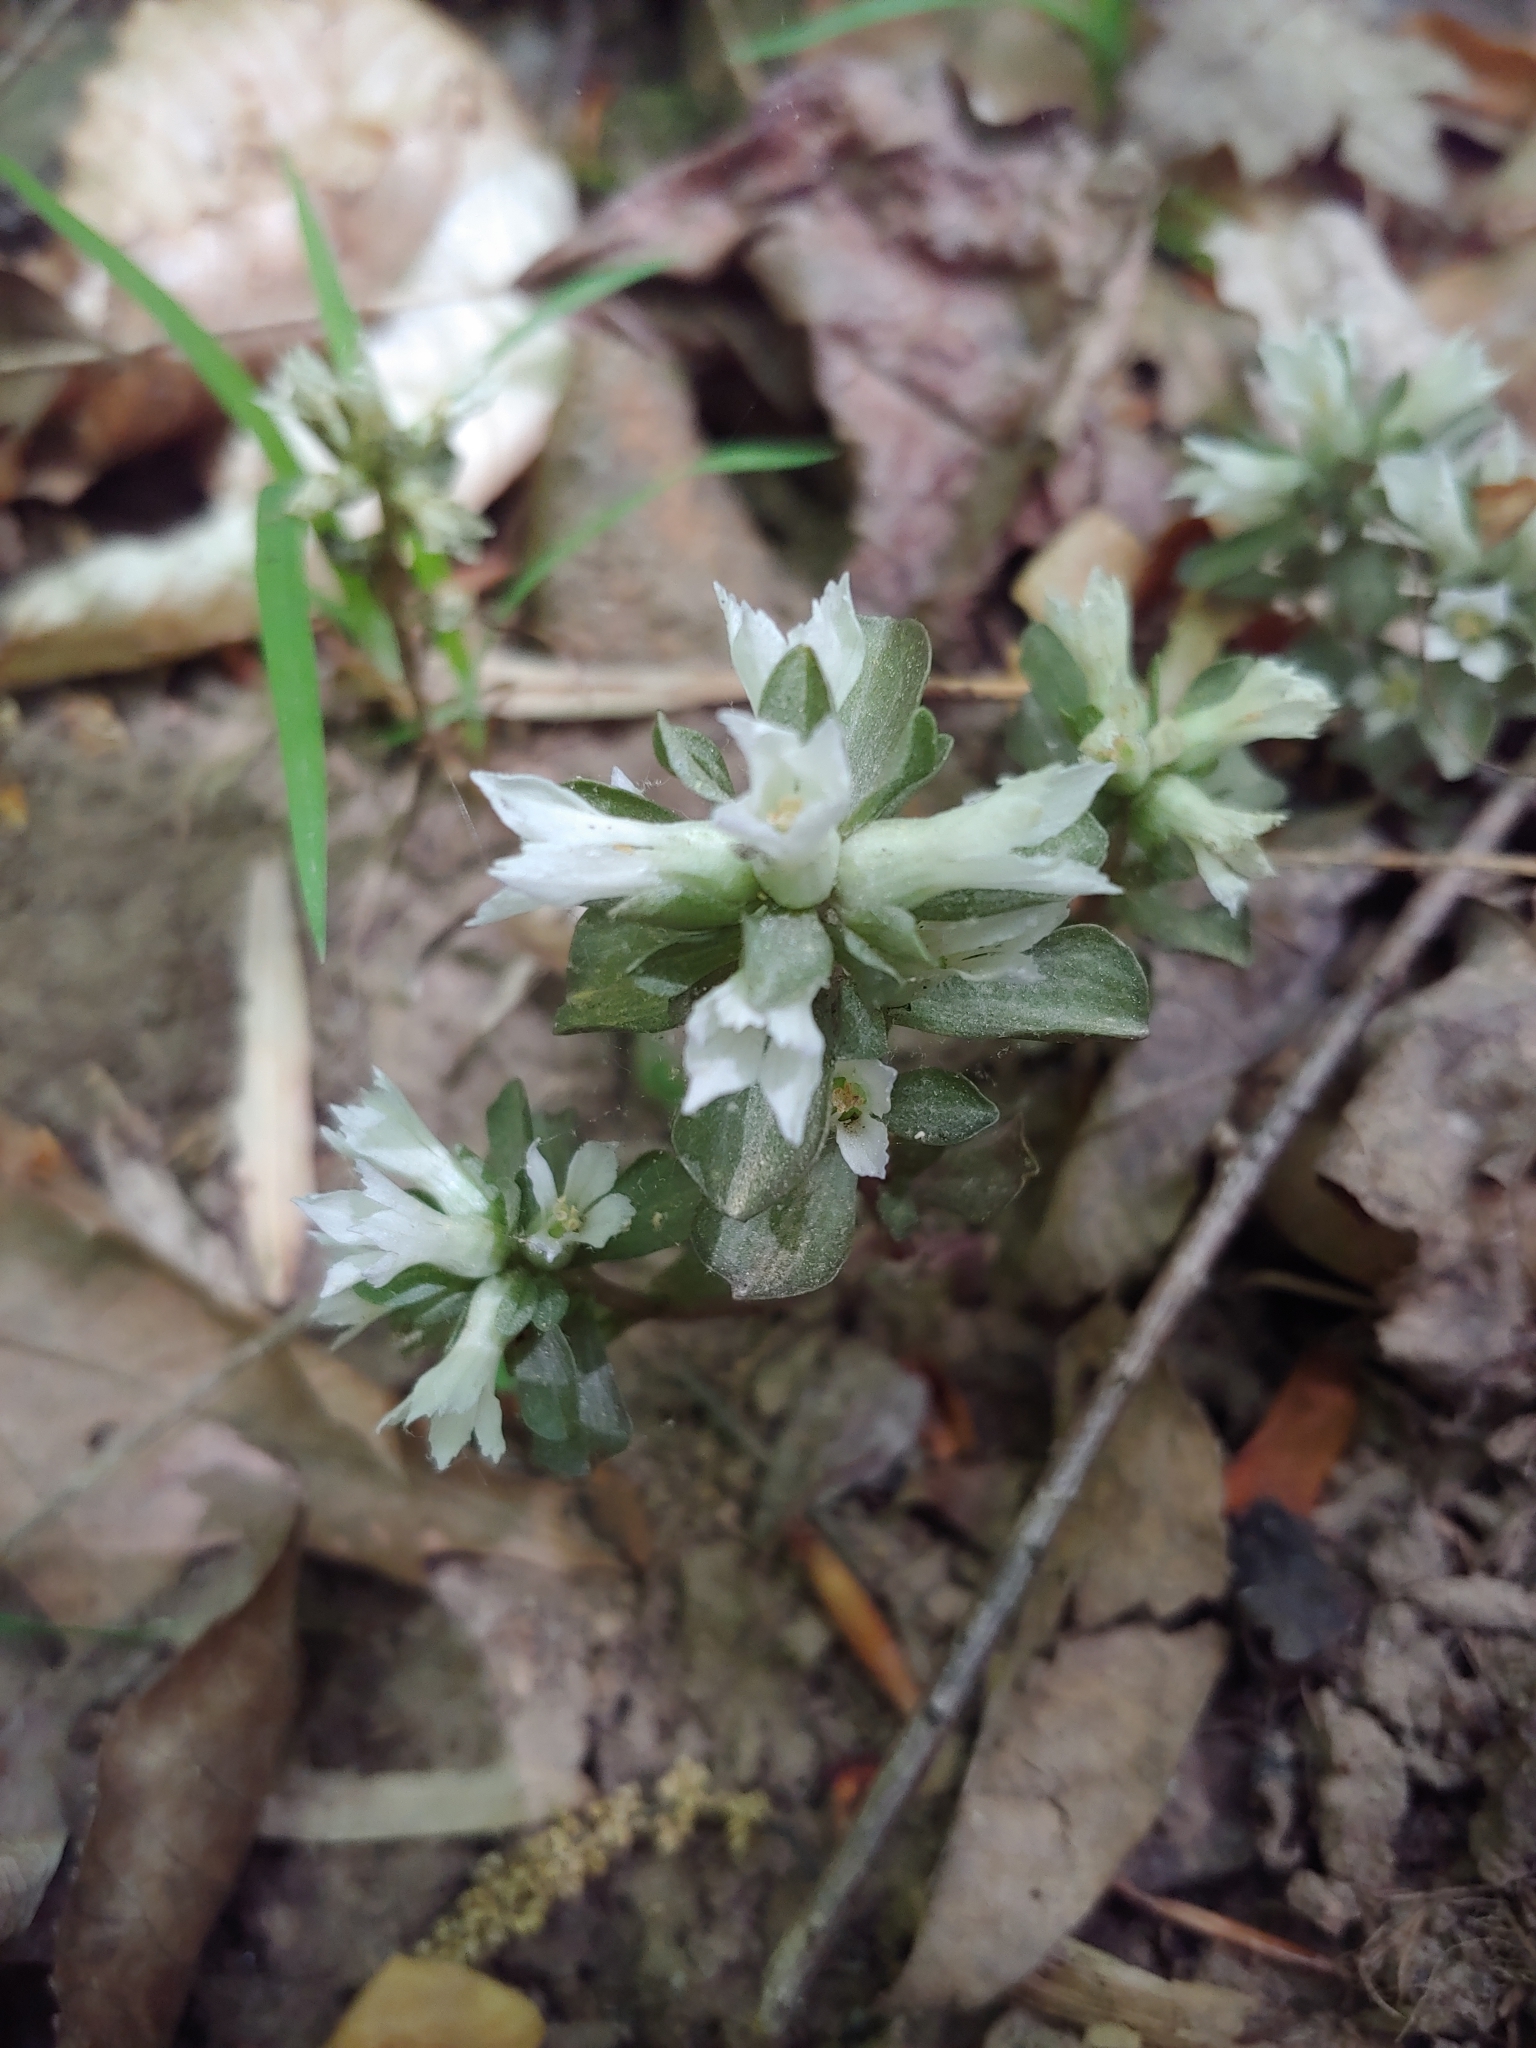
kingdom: Plantae
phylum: Tracheophyta
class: Magnoliopsida
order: Gentianales
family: Gentianaceae
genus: Obolaria
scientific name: Obolaria virginica
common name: Pennywort
